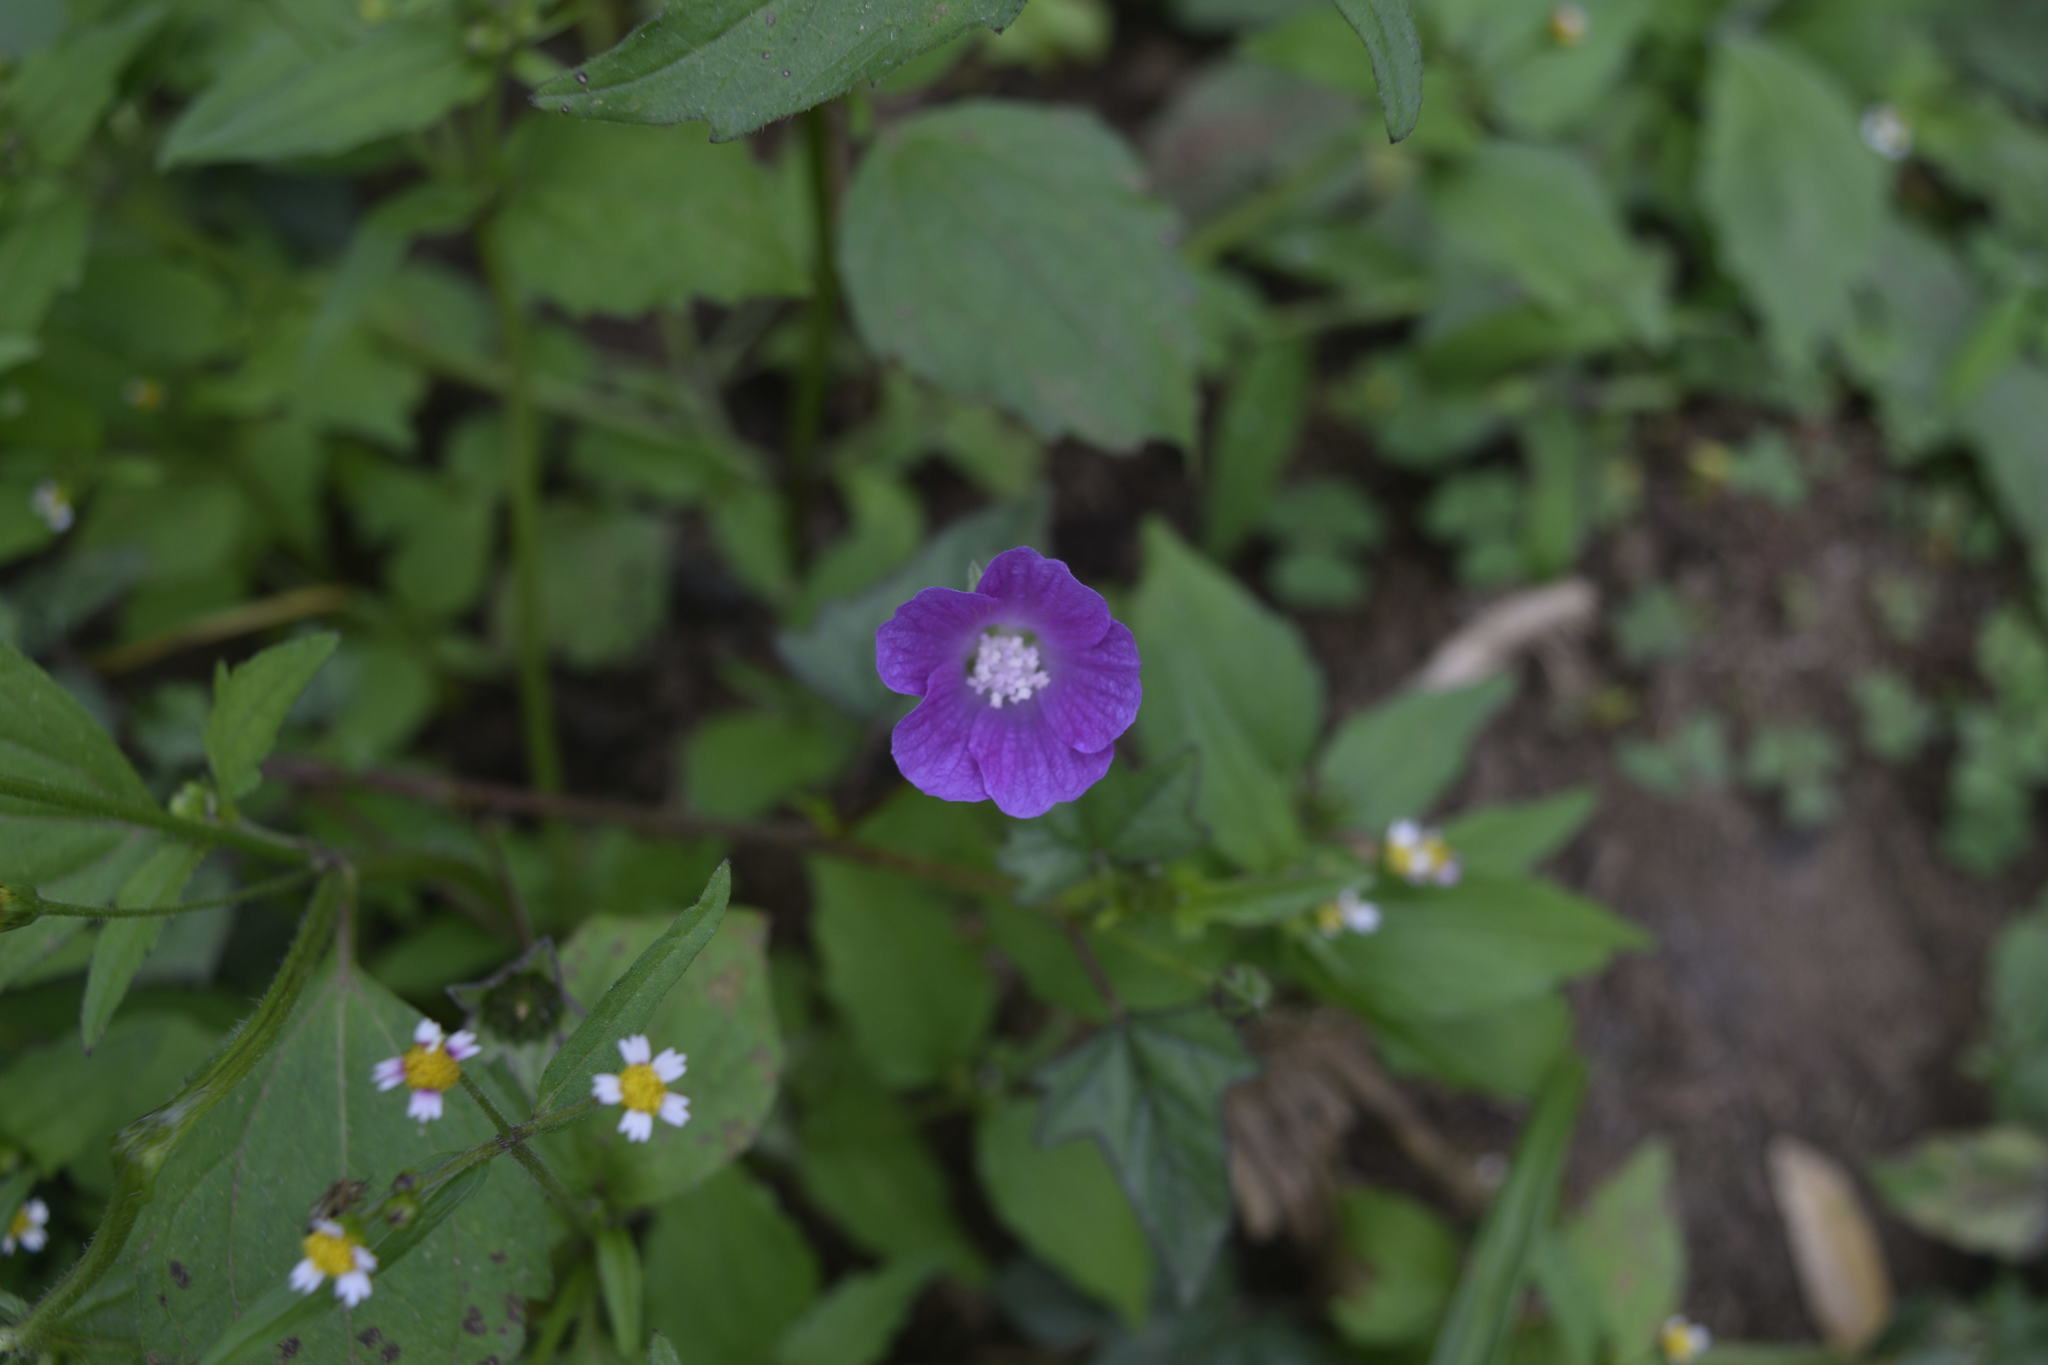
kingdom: Plantae
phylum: Tracheophyta
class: Magnoliopsida
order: Malvales
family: Malvaceae
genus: Anoda
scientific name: Anoda cristata
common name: Spurred anoda
